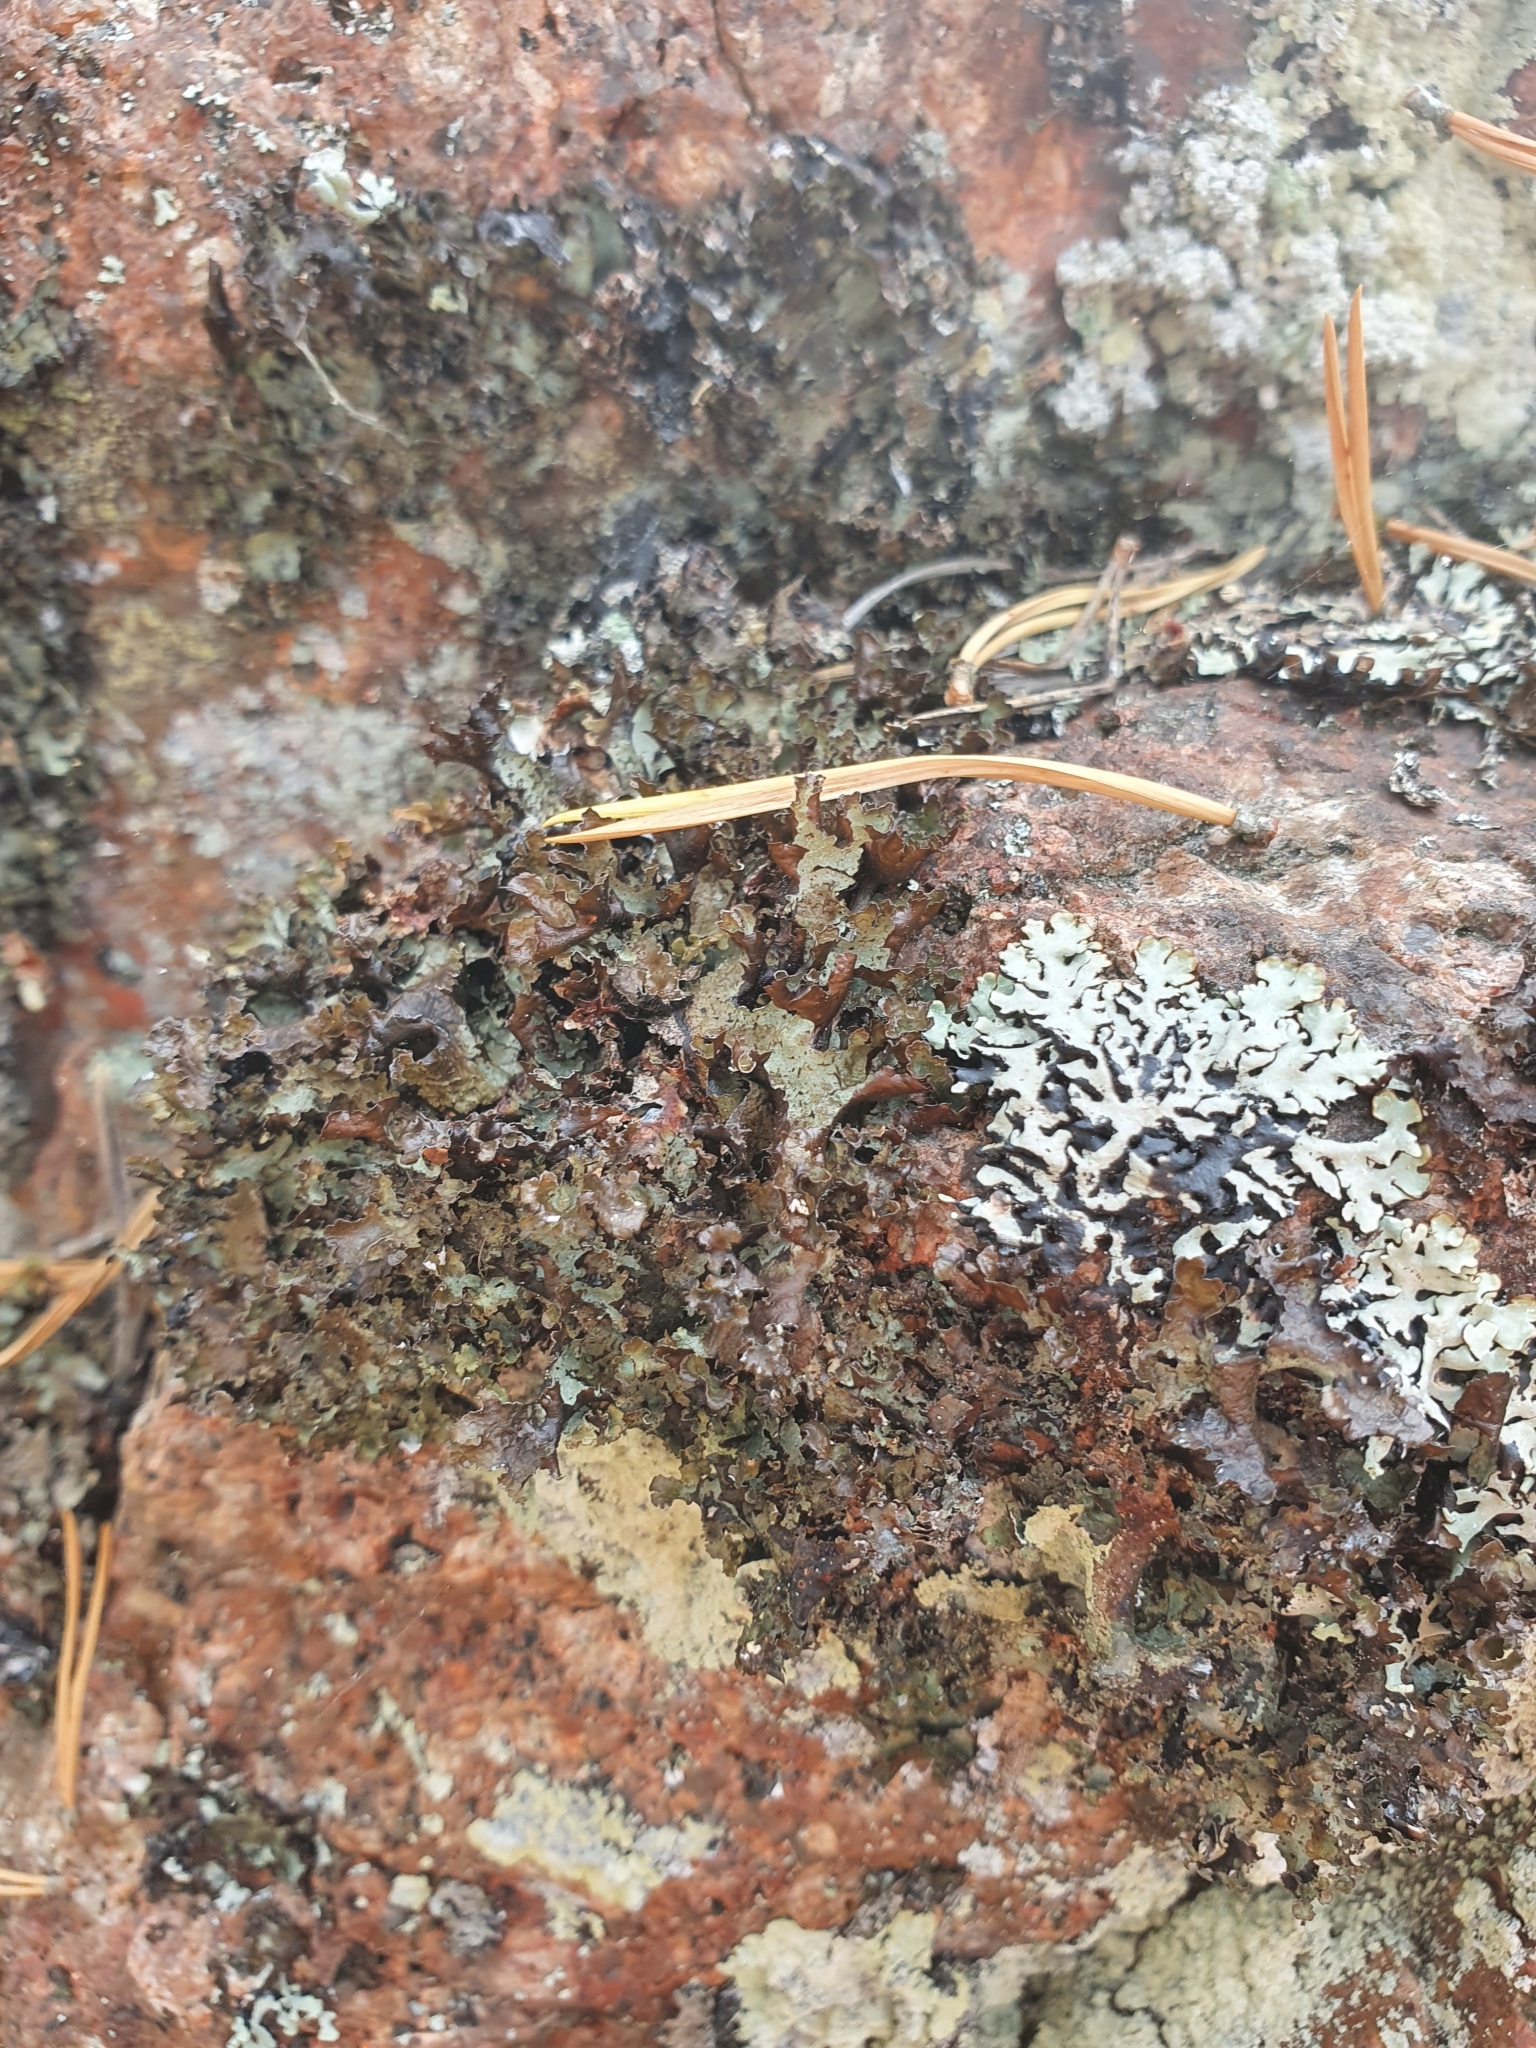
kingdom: Fungi
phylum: Ascomycota
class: Lecanoromycetes
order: Lecanorales
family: Parmeliaceae
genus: Platismatia
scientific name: Platismatia glauca
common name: Varied rag lichen
